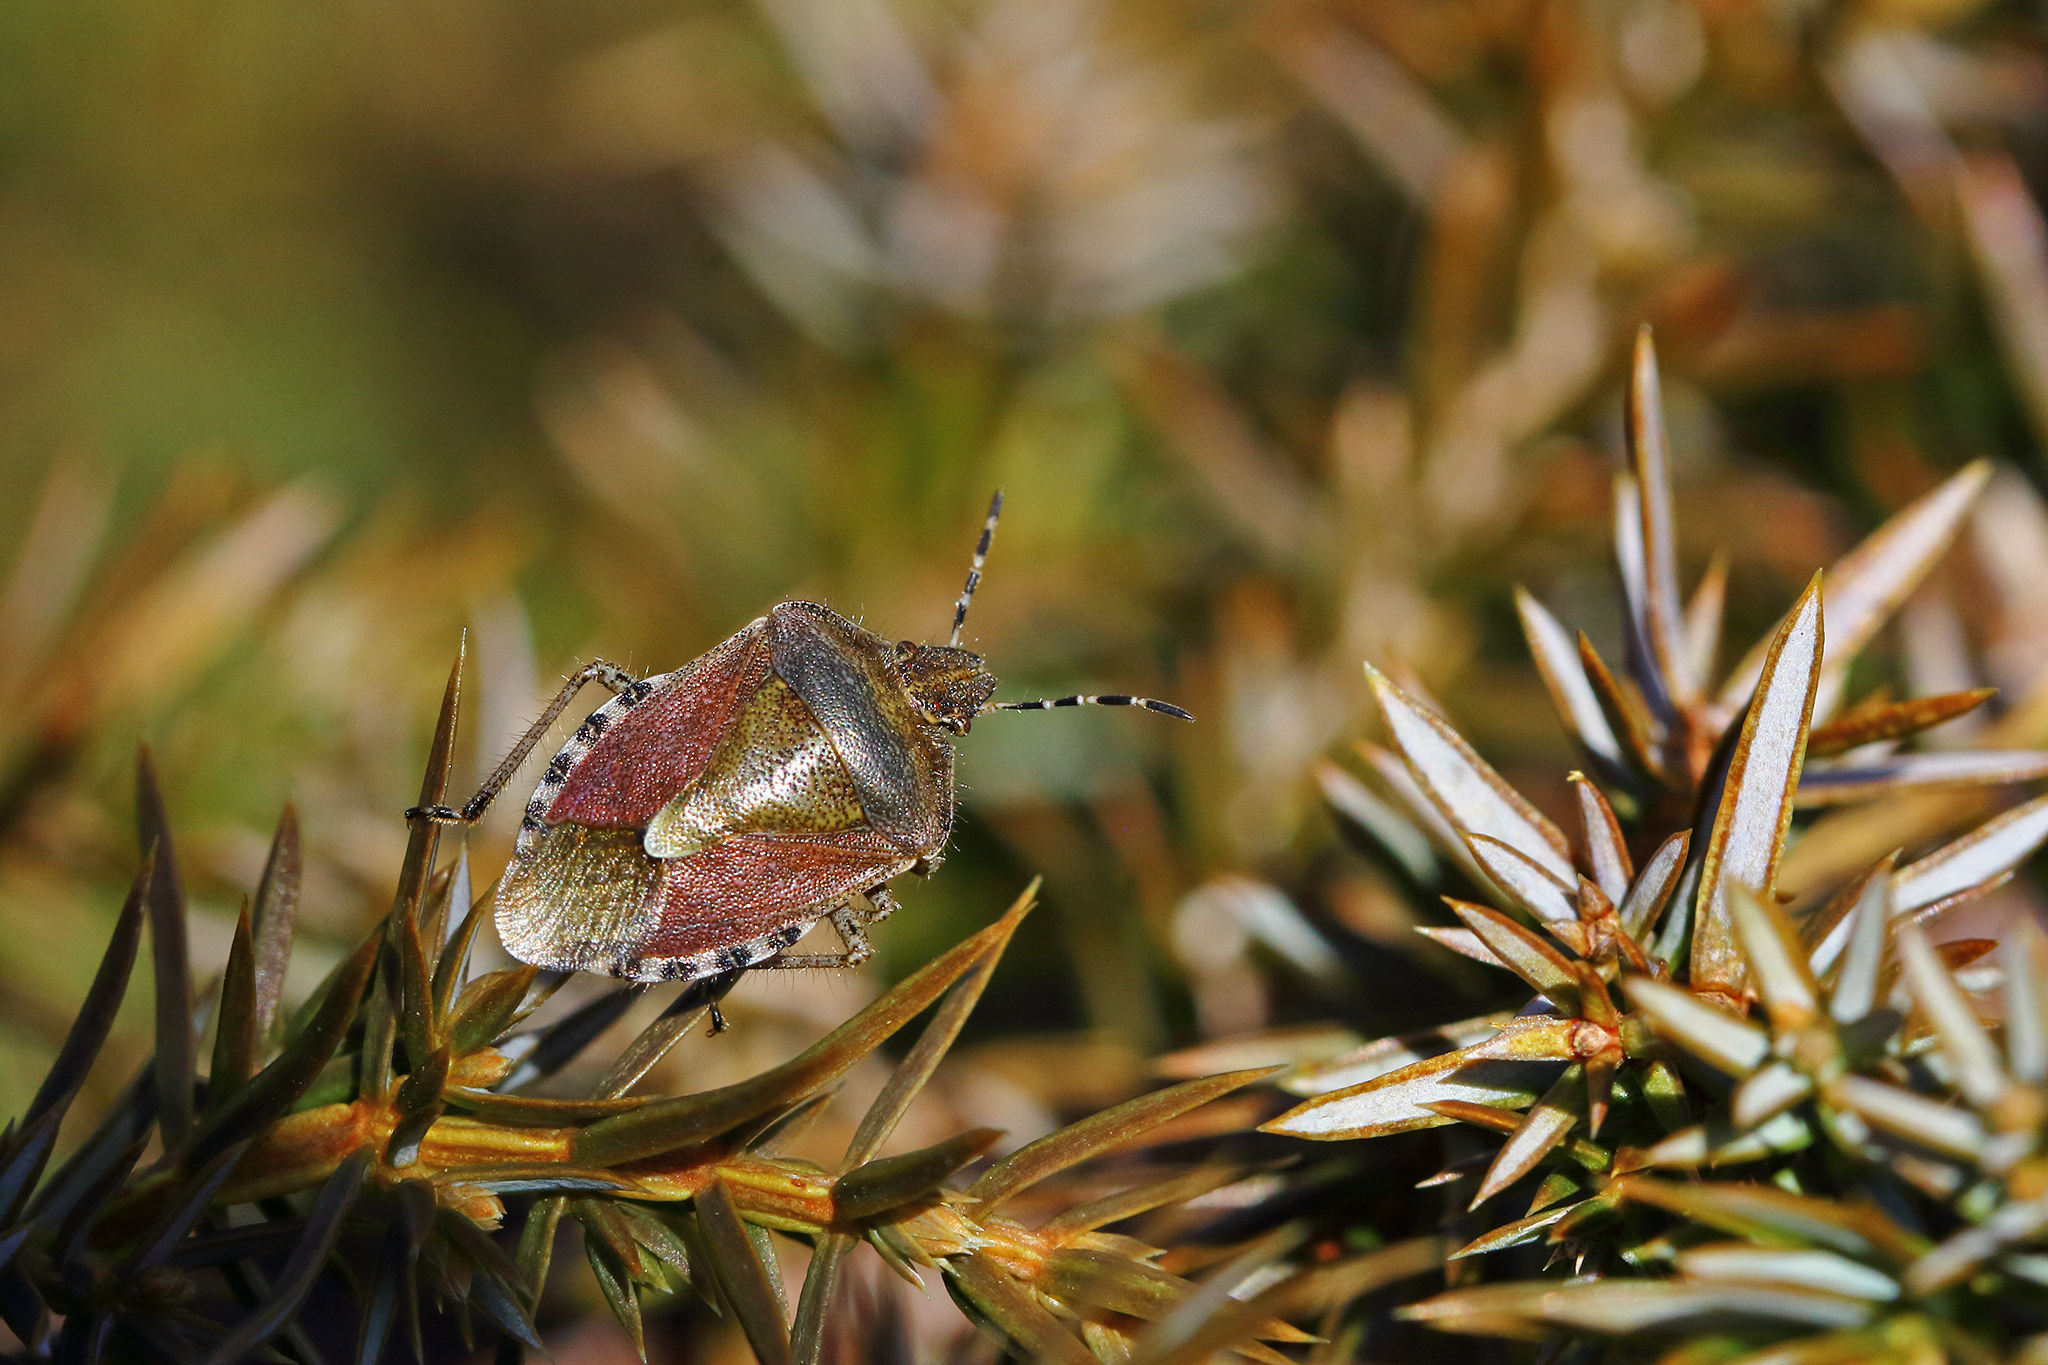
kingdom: Animalia
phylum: Arthropoda
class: Insecta
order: Hemiptera
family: Pentatomidae
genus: Dolycoris
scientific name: Dolycoris baccarum
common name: Sloe bug
